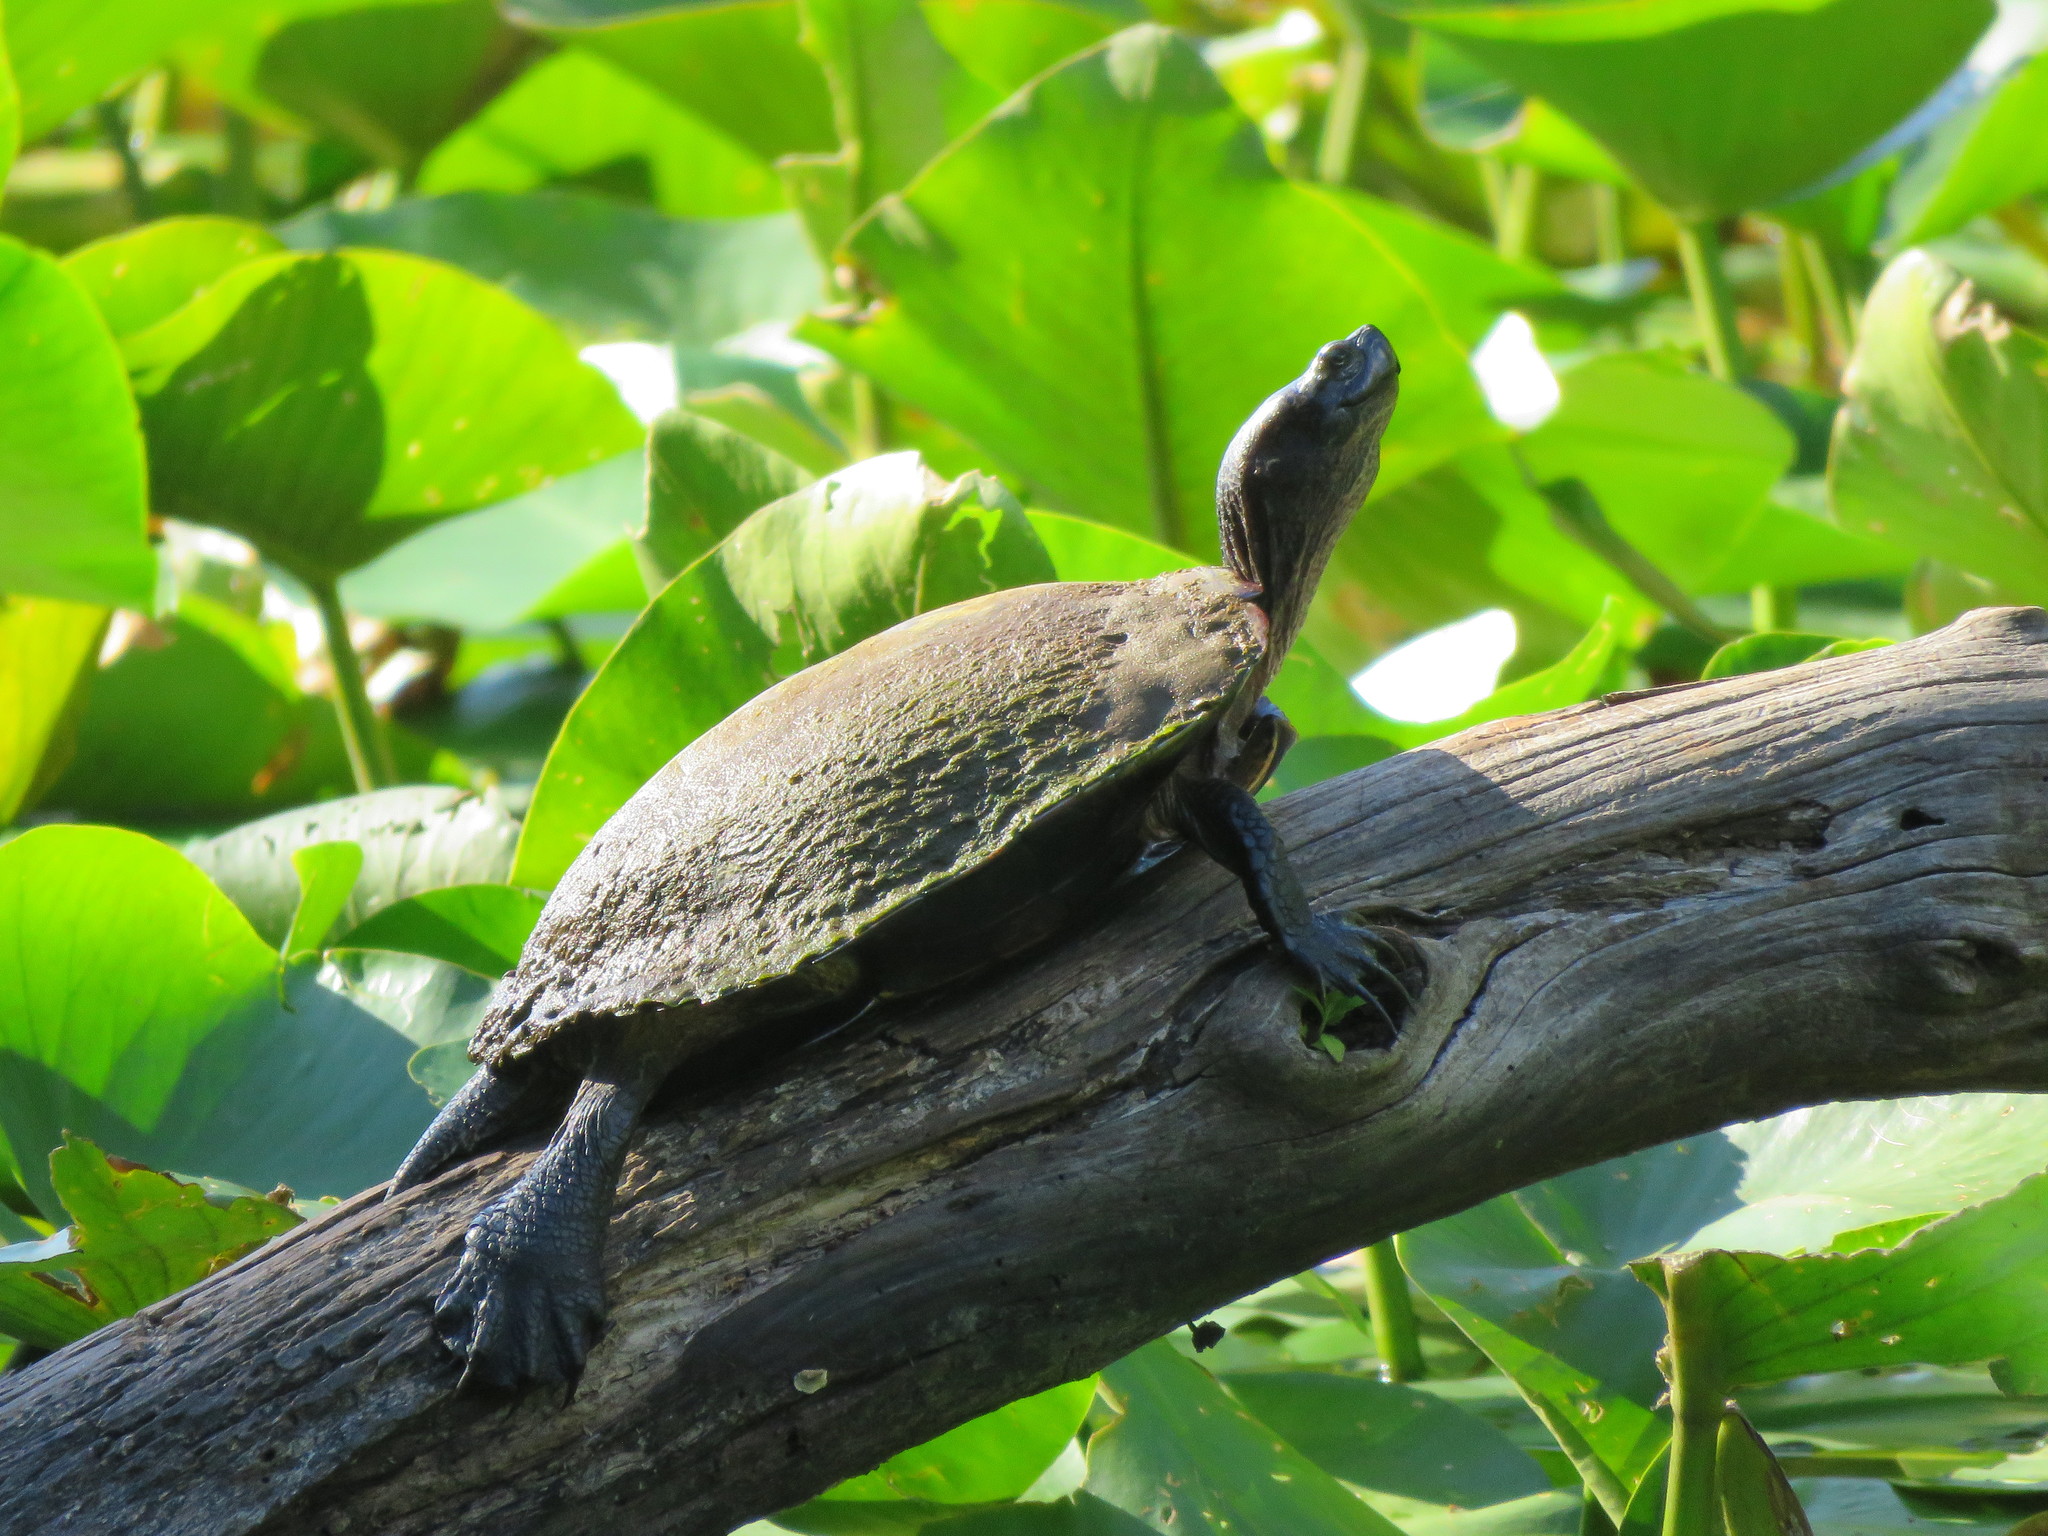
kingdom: Animalia
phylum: Chordata
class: Testudines
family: Emydidae
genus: Trachemys
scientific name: Trachemys scripta
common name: Slider
